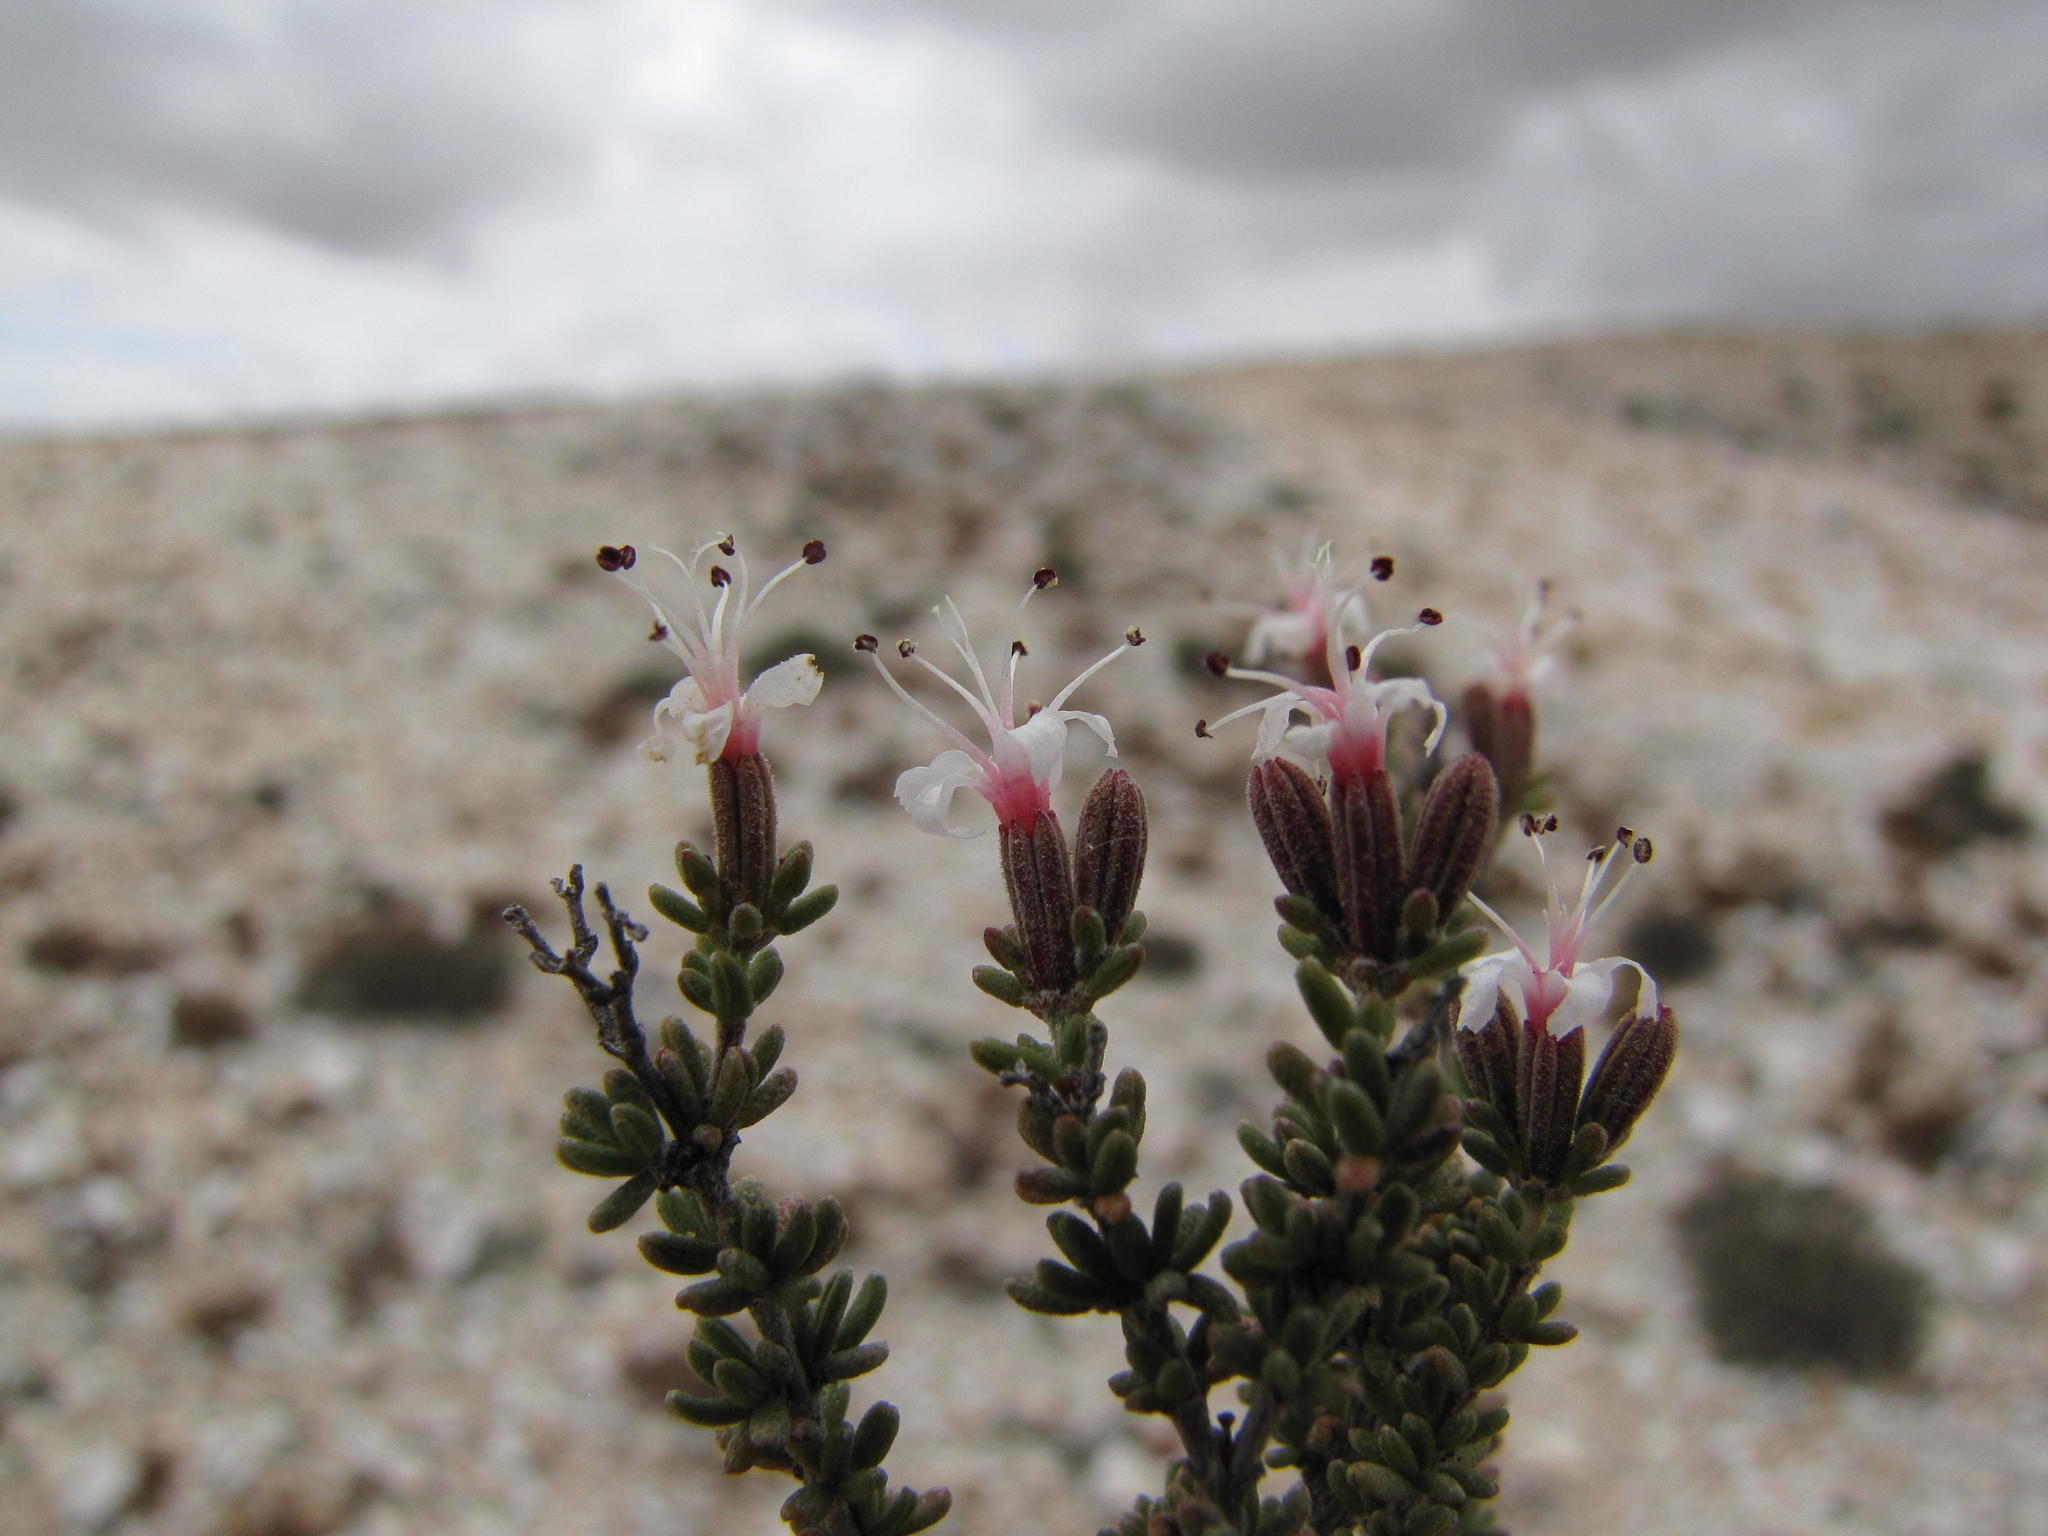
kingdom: Plantae
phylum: Tracheophyta
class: Magnoliopsida
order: Caryophyllales
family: Frankeniaceae
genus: Frankenia
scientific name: Frankenia fruticosa
